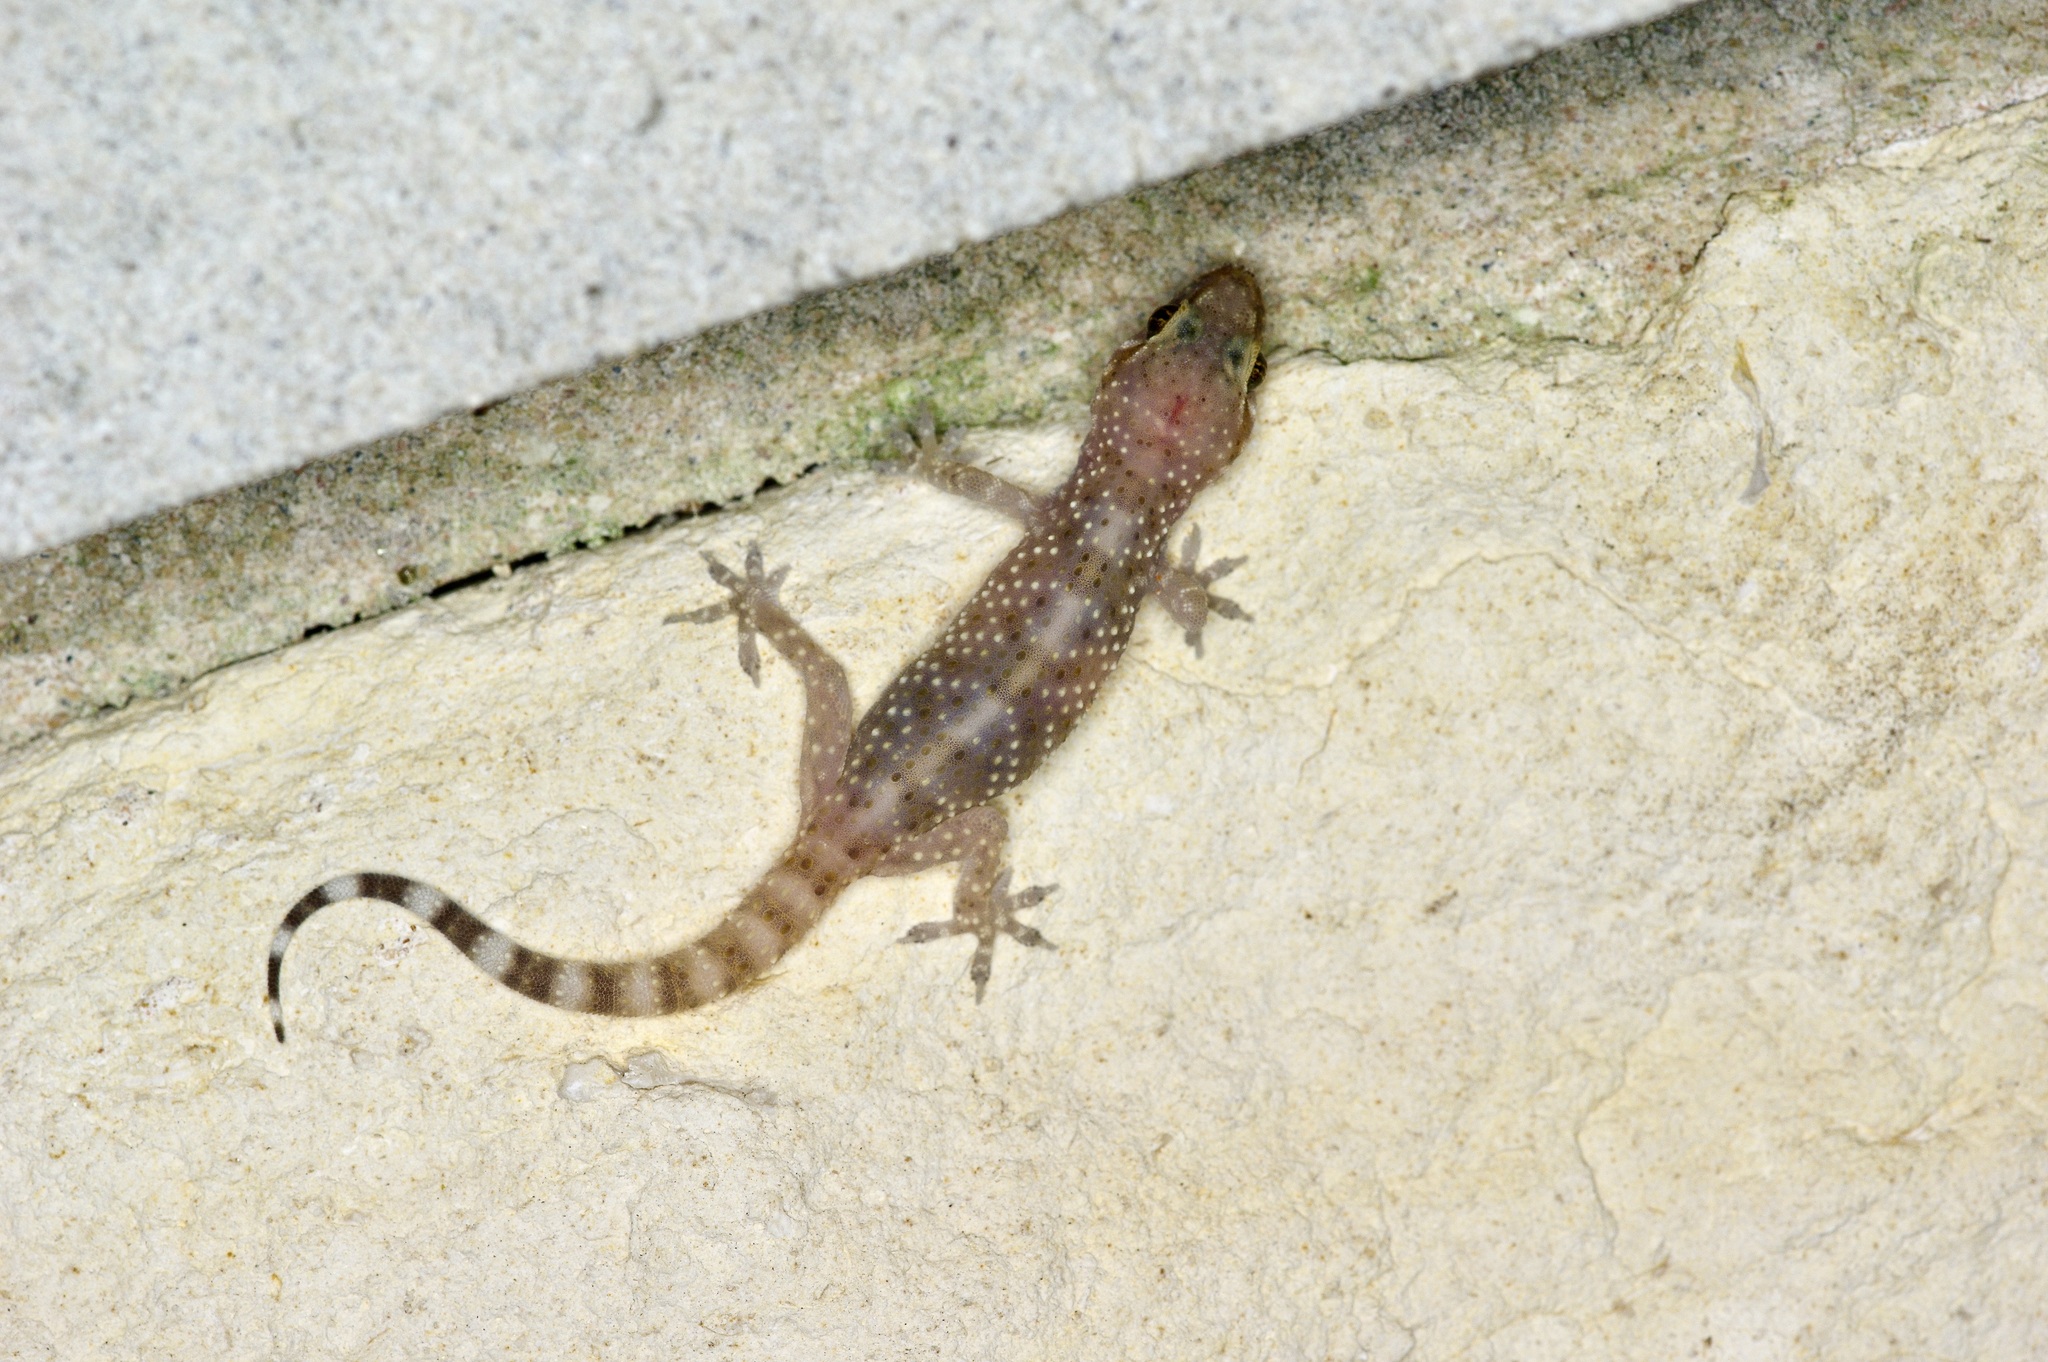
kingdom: Animalia
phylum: Chordata
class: Squamata
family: Gekkonidae
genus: Hemidactylus
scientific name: Hemidactylus turcicus
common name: Turkish gecko
